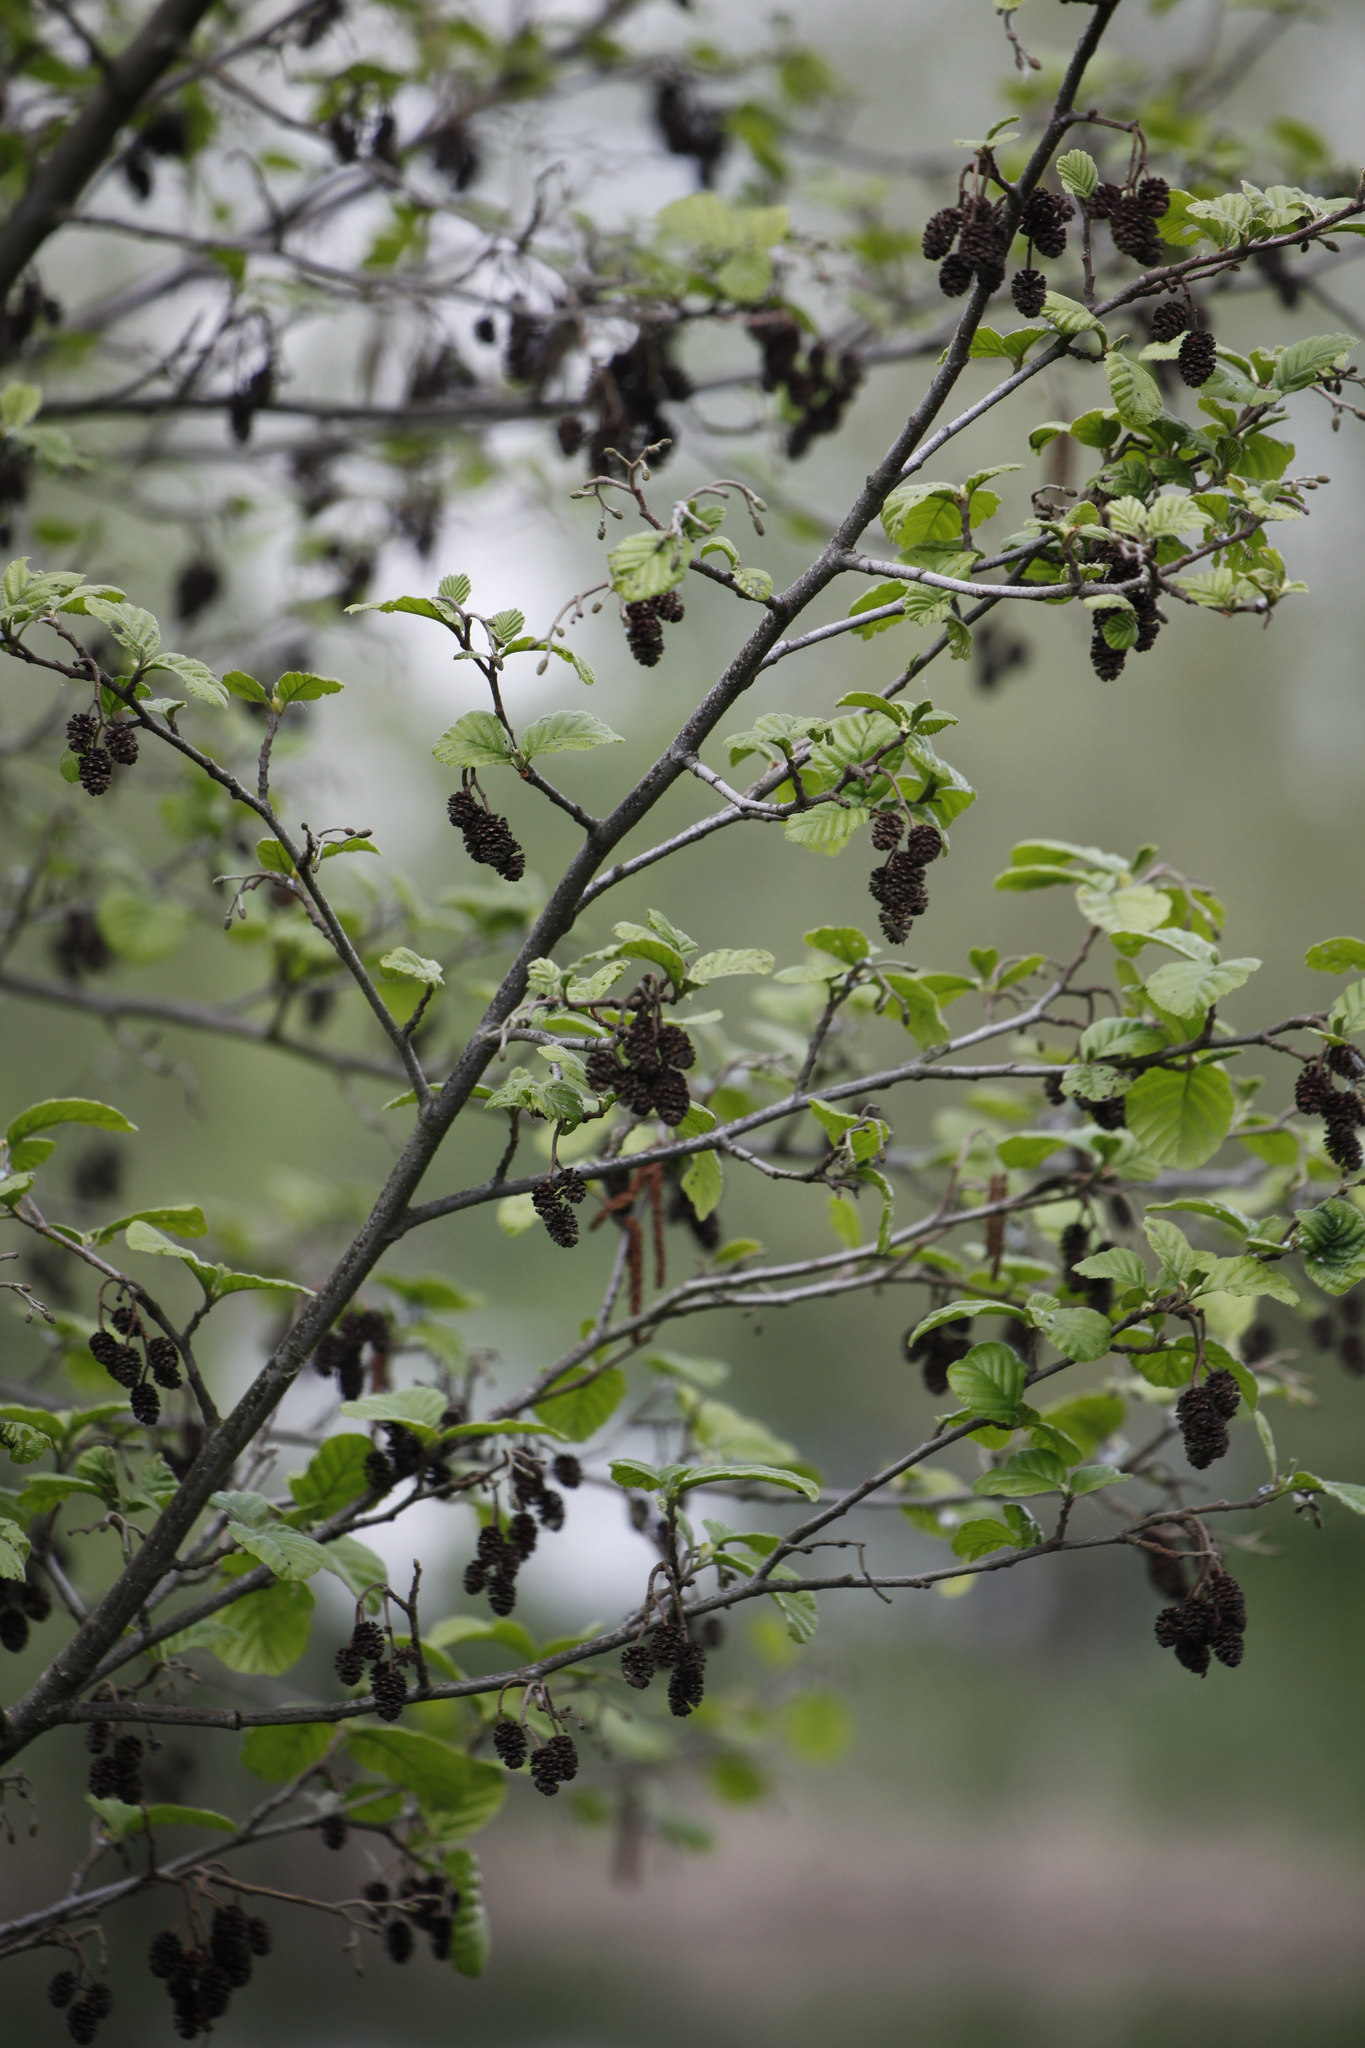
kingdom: Plantae
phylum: Tracheophyta
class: Magnoliopsida
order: Fagales
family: Betulaceae
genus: Alnus
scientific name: Alnus glutinosa
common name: Black alder
